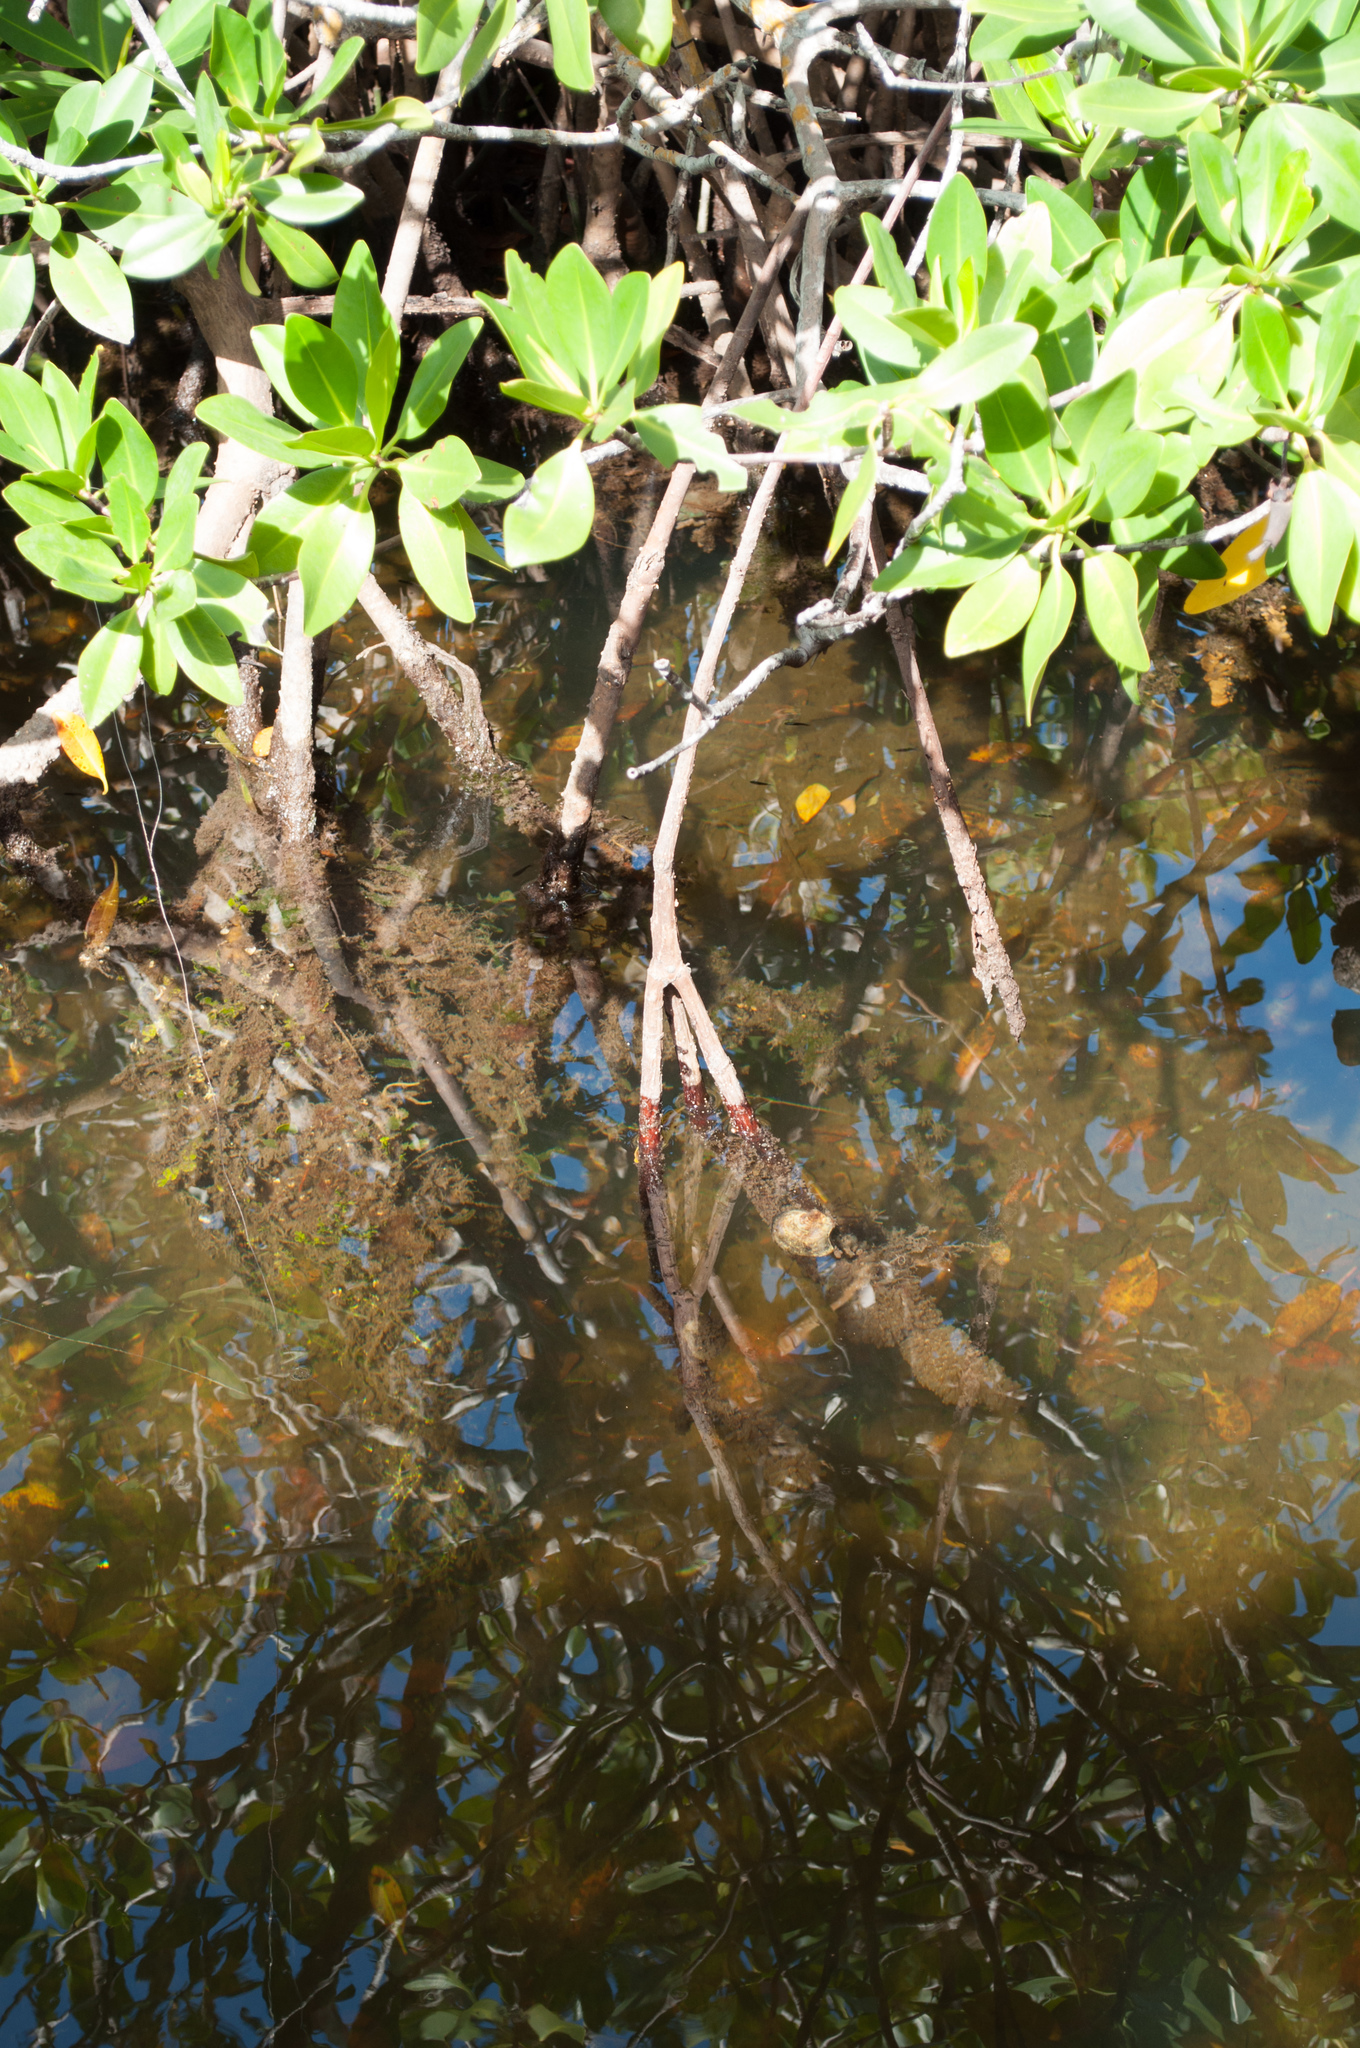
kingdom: Plantae
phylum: Tracheophyta
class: Magnoliopsida
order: Malpighiales
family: Rhizophoraceae
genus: Rhizophora
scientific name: Rhizophora mangle
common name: Red mangrove
